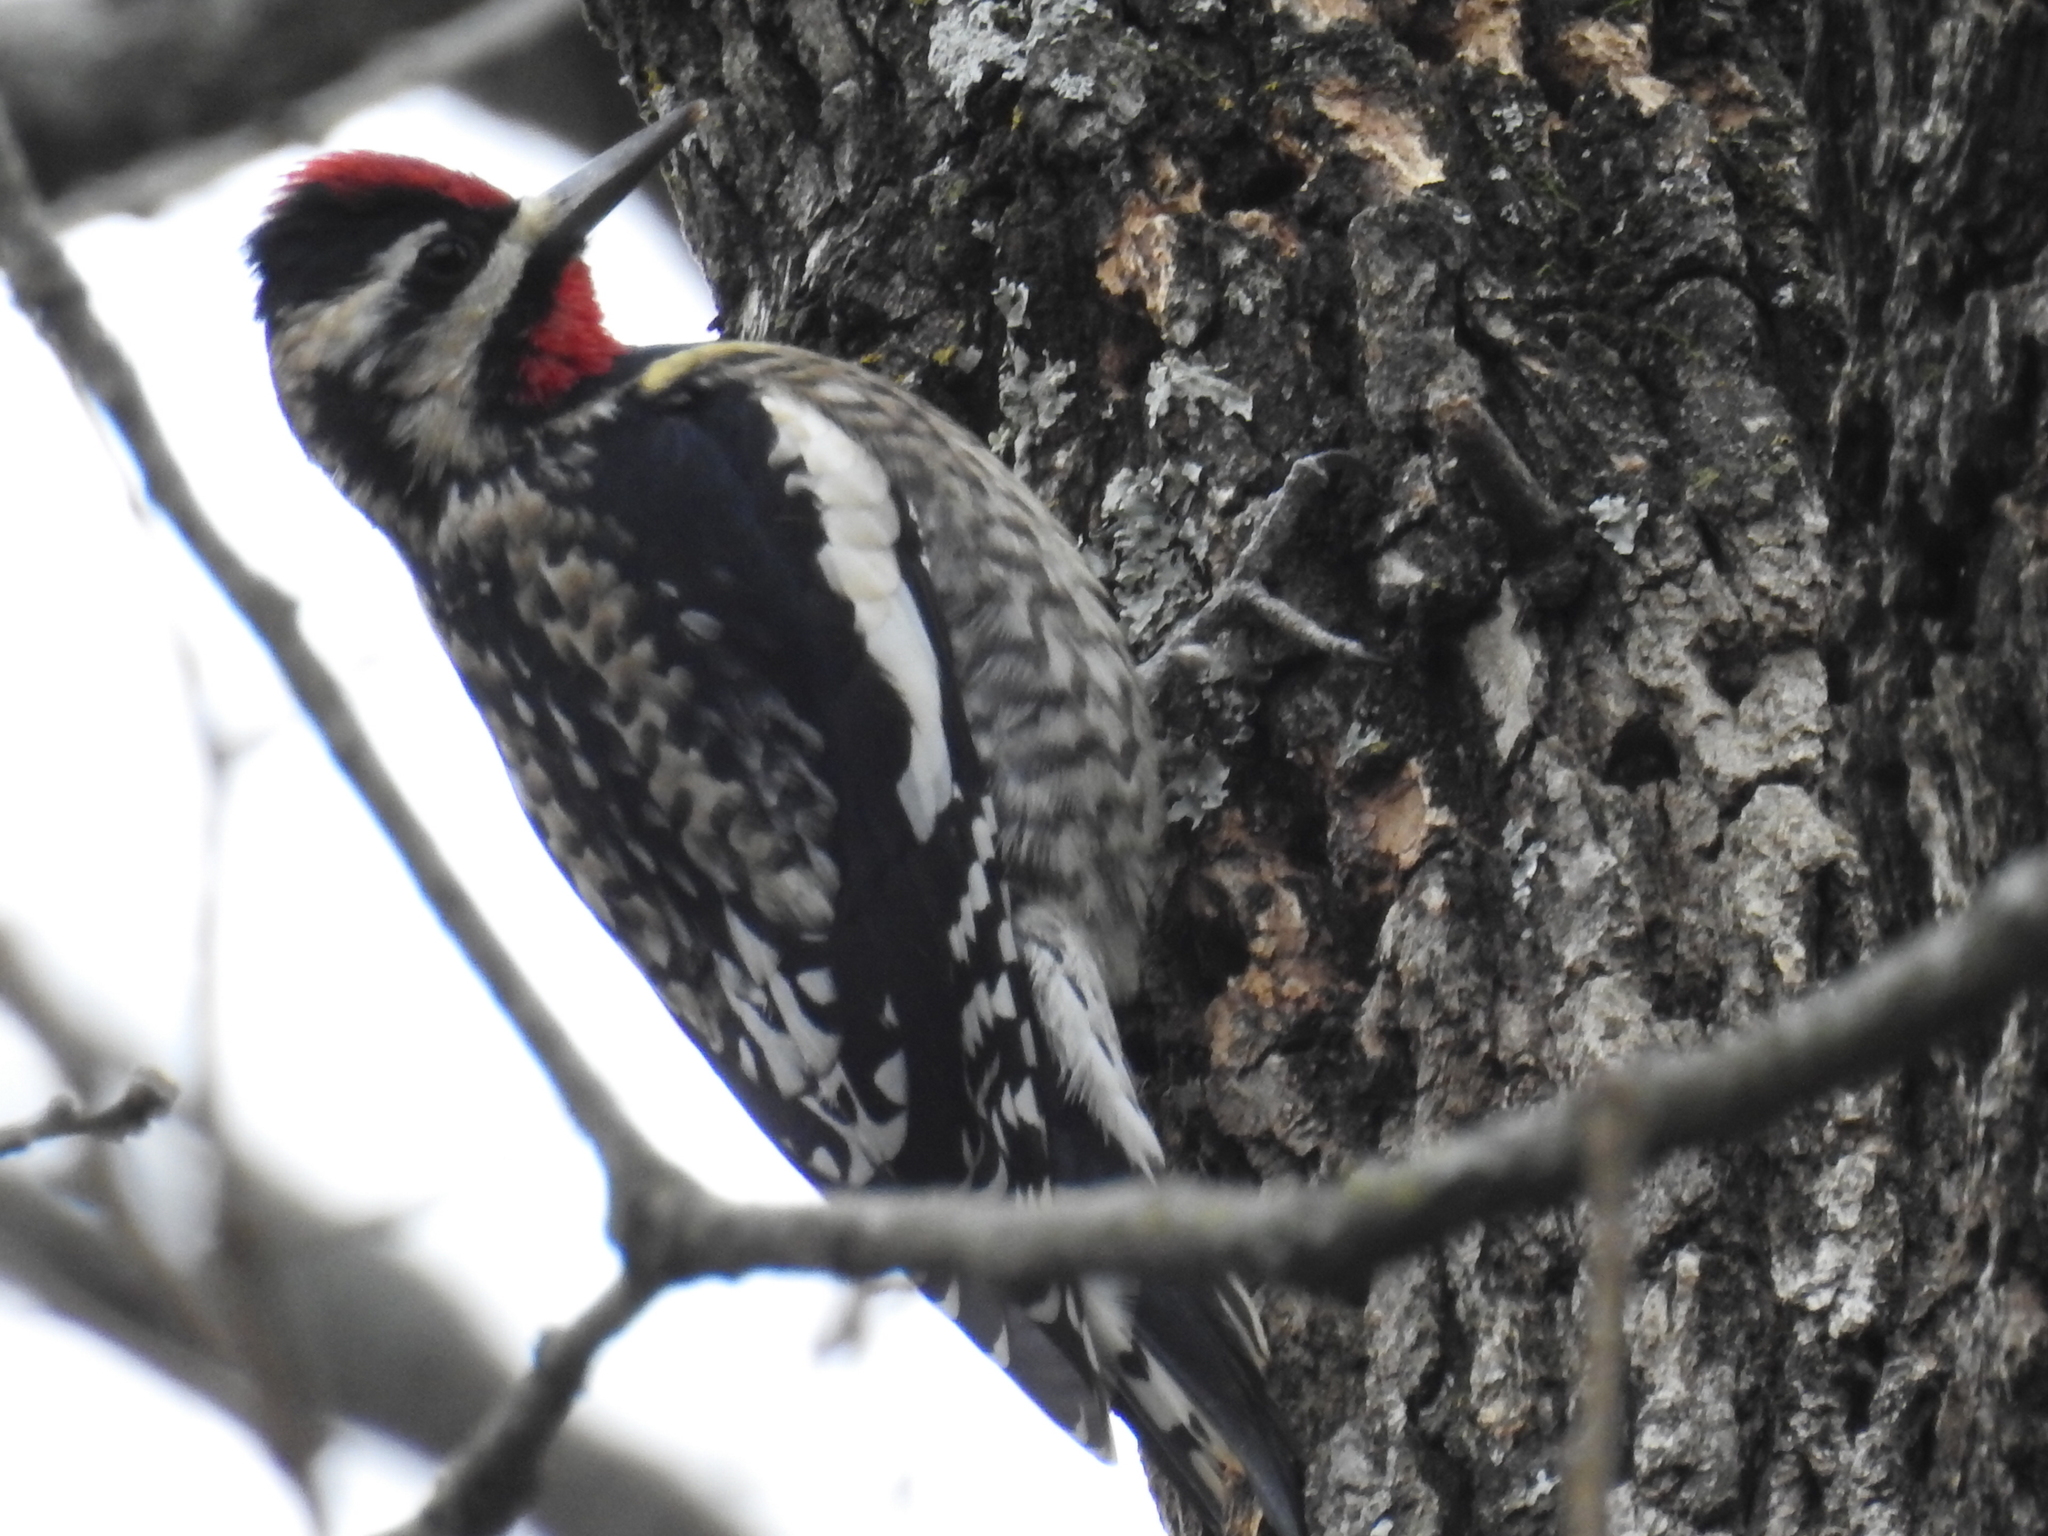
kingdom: Animalia
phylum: Chordata
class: Aves
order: Piciformes
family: Picidae
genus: Sphyrapicus
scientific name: Sphyrapicus varius
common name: Yellow-bellied sapsucker
